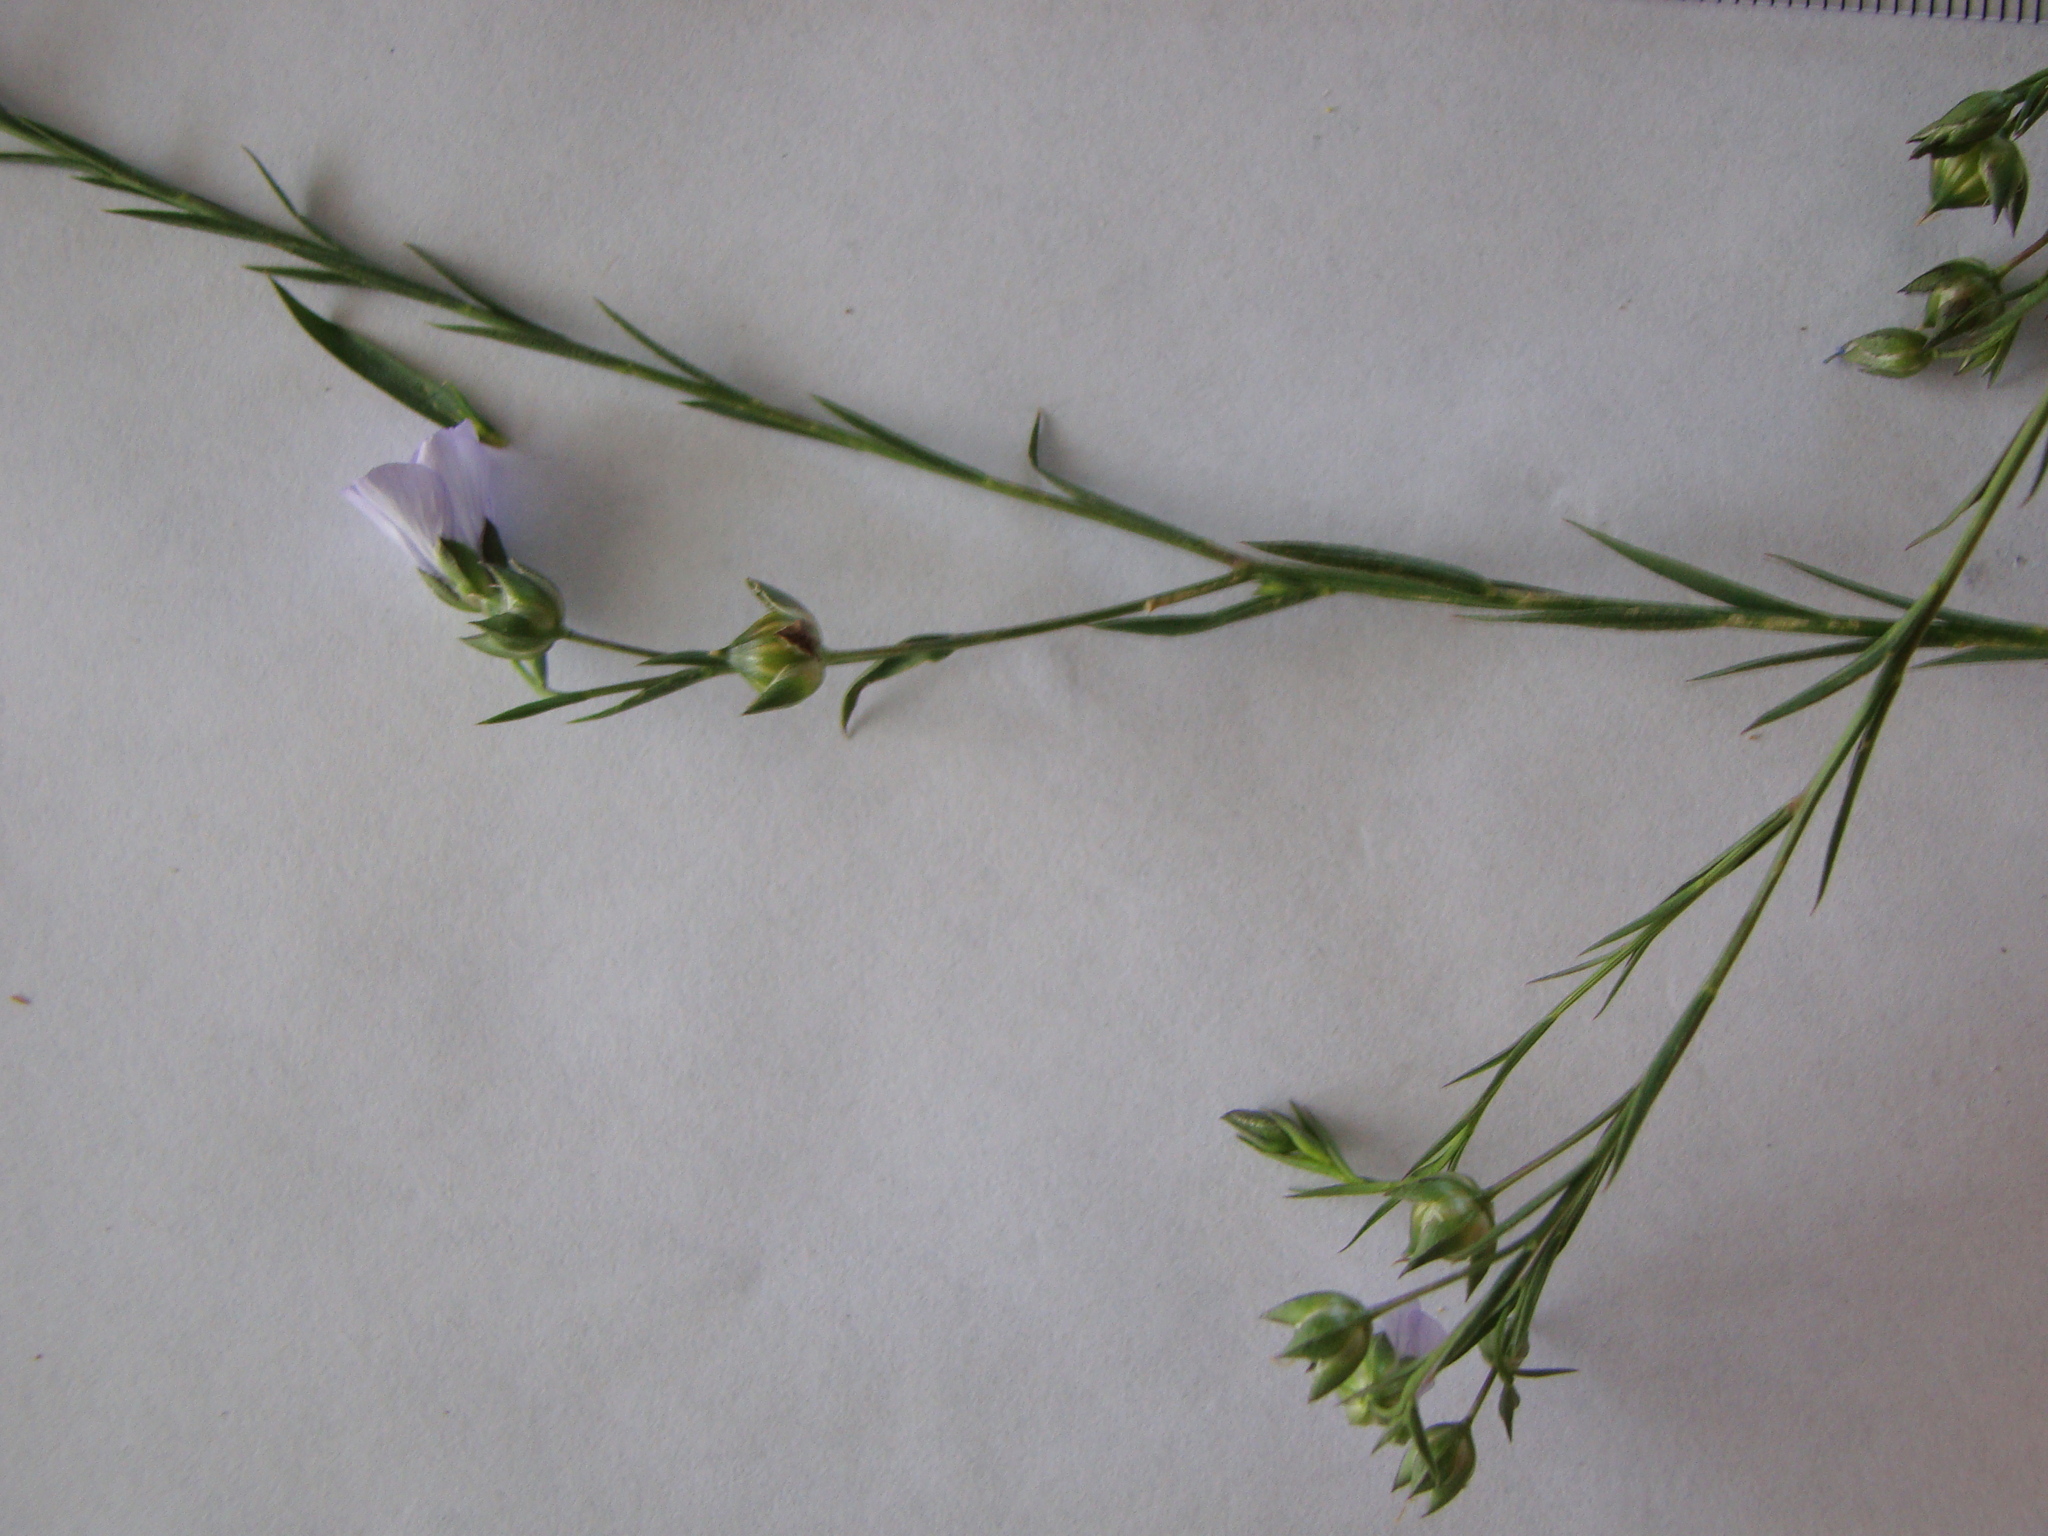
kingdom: Plantae
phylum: Tracheophyta
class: Magnoliopsida
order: Malpighiales
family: Linaceae
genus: Linum
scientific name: Linum bienne
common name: Pale flax
